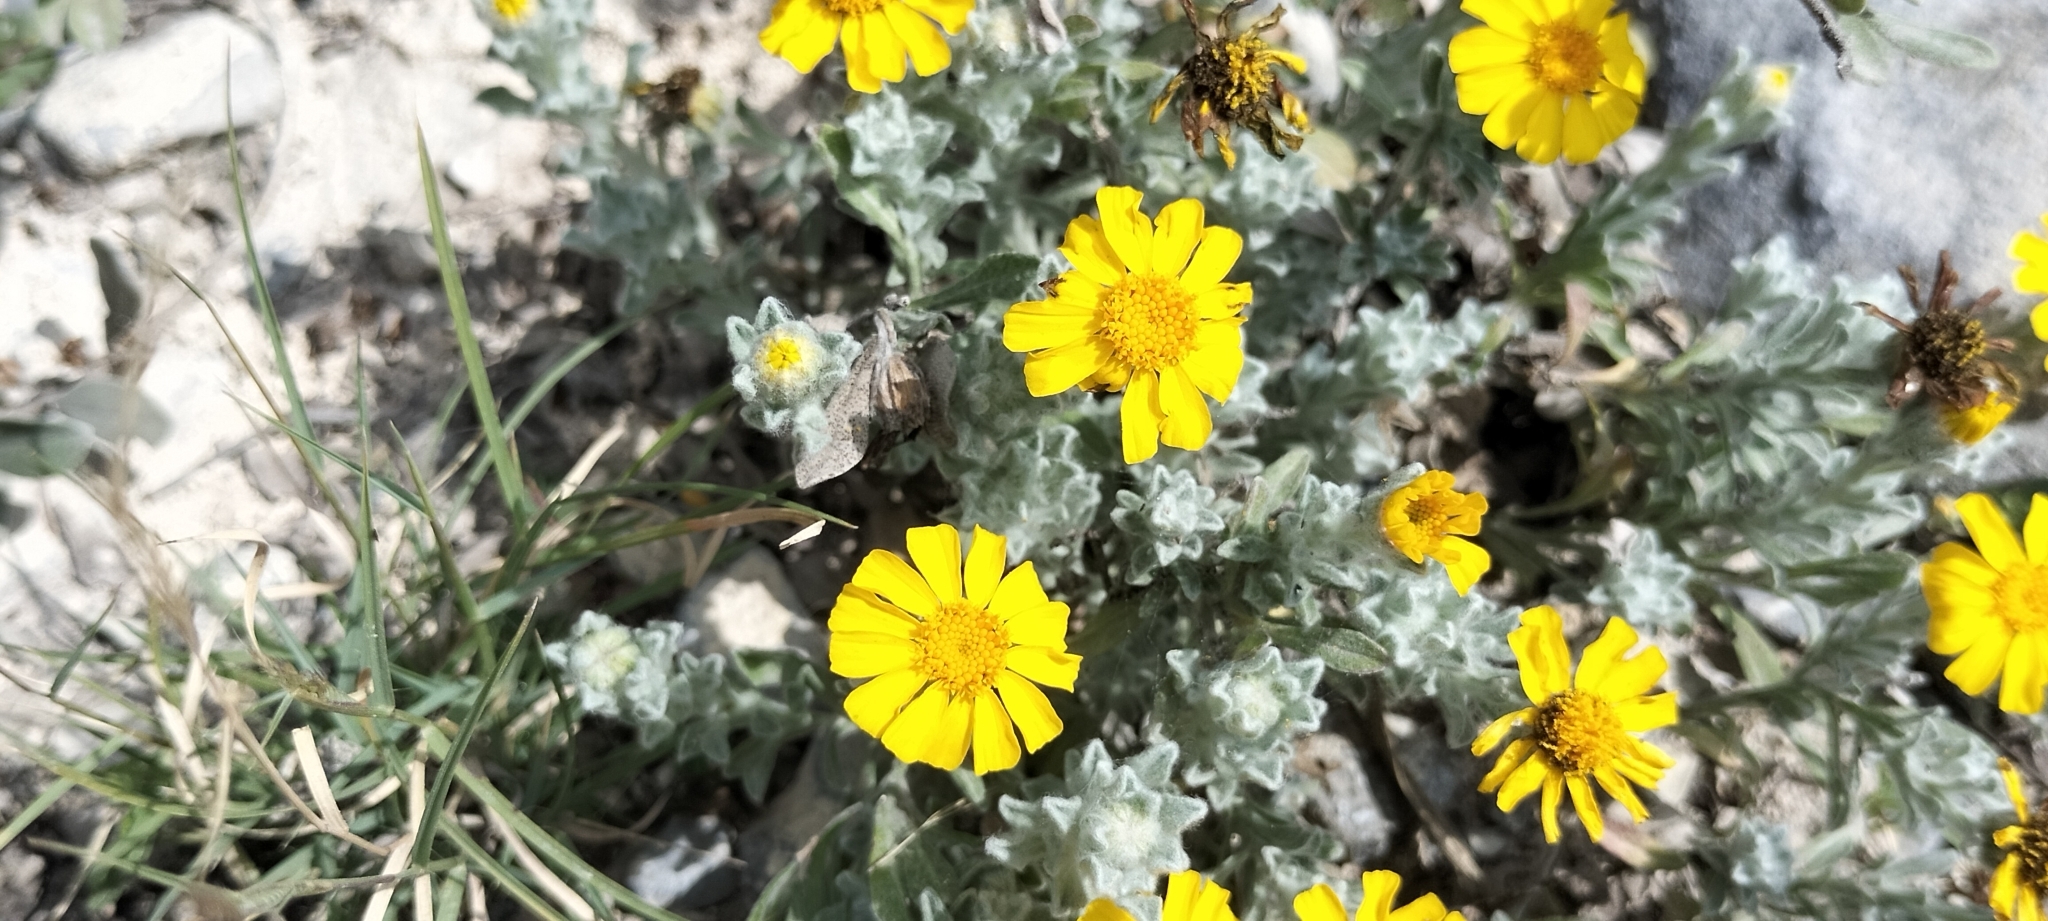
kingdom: Plantae
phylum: Tracheophyta
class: Magnoliopsida
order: Asterales
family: Asteraceae
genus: Thymophylla
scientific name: Thymophylla micropoides
